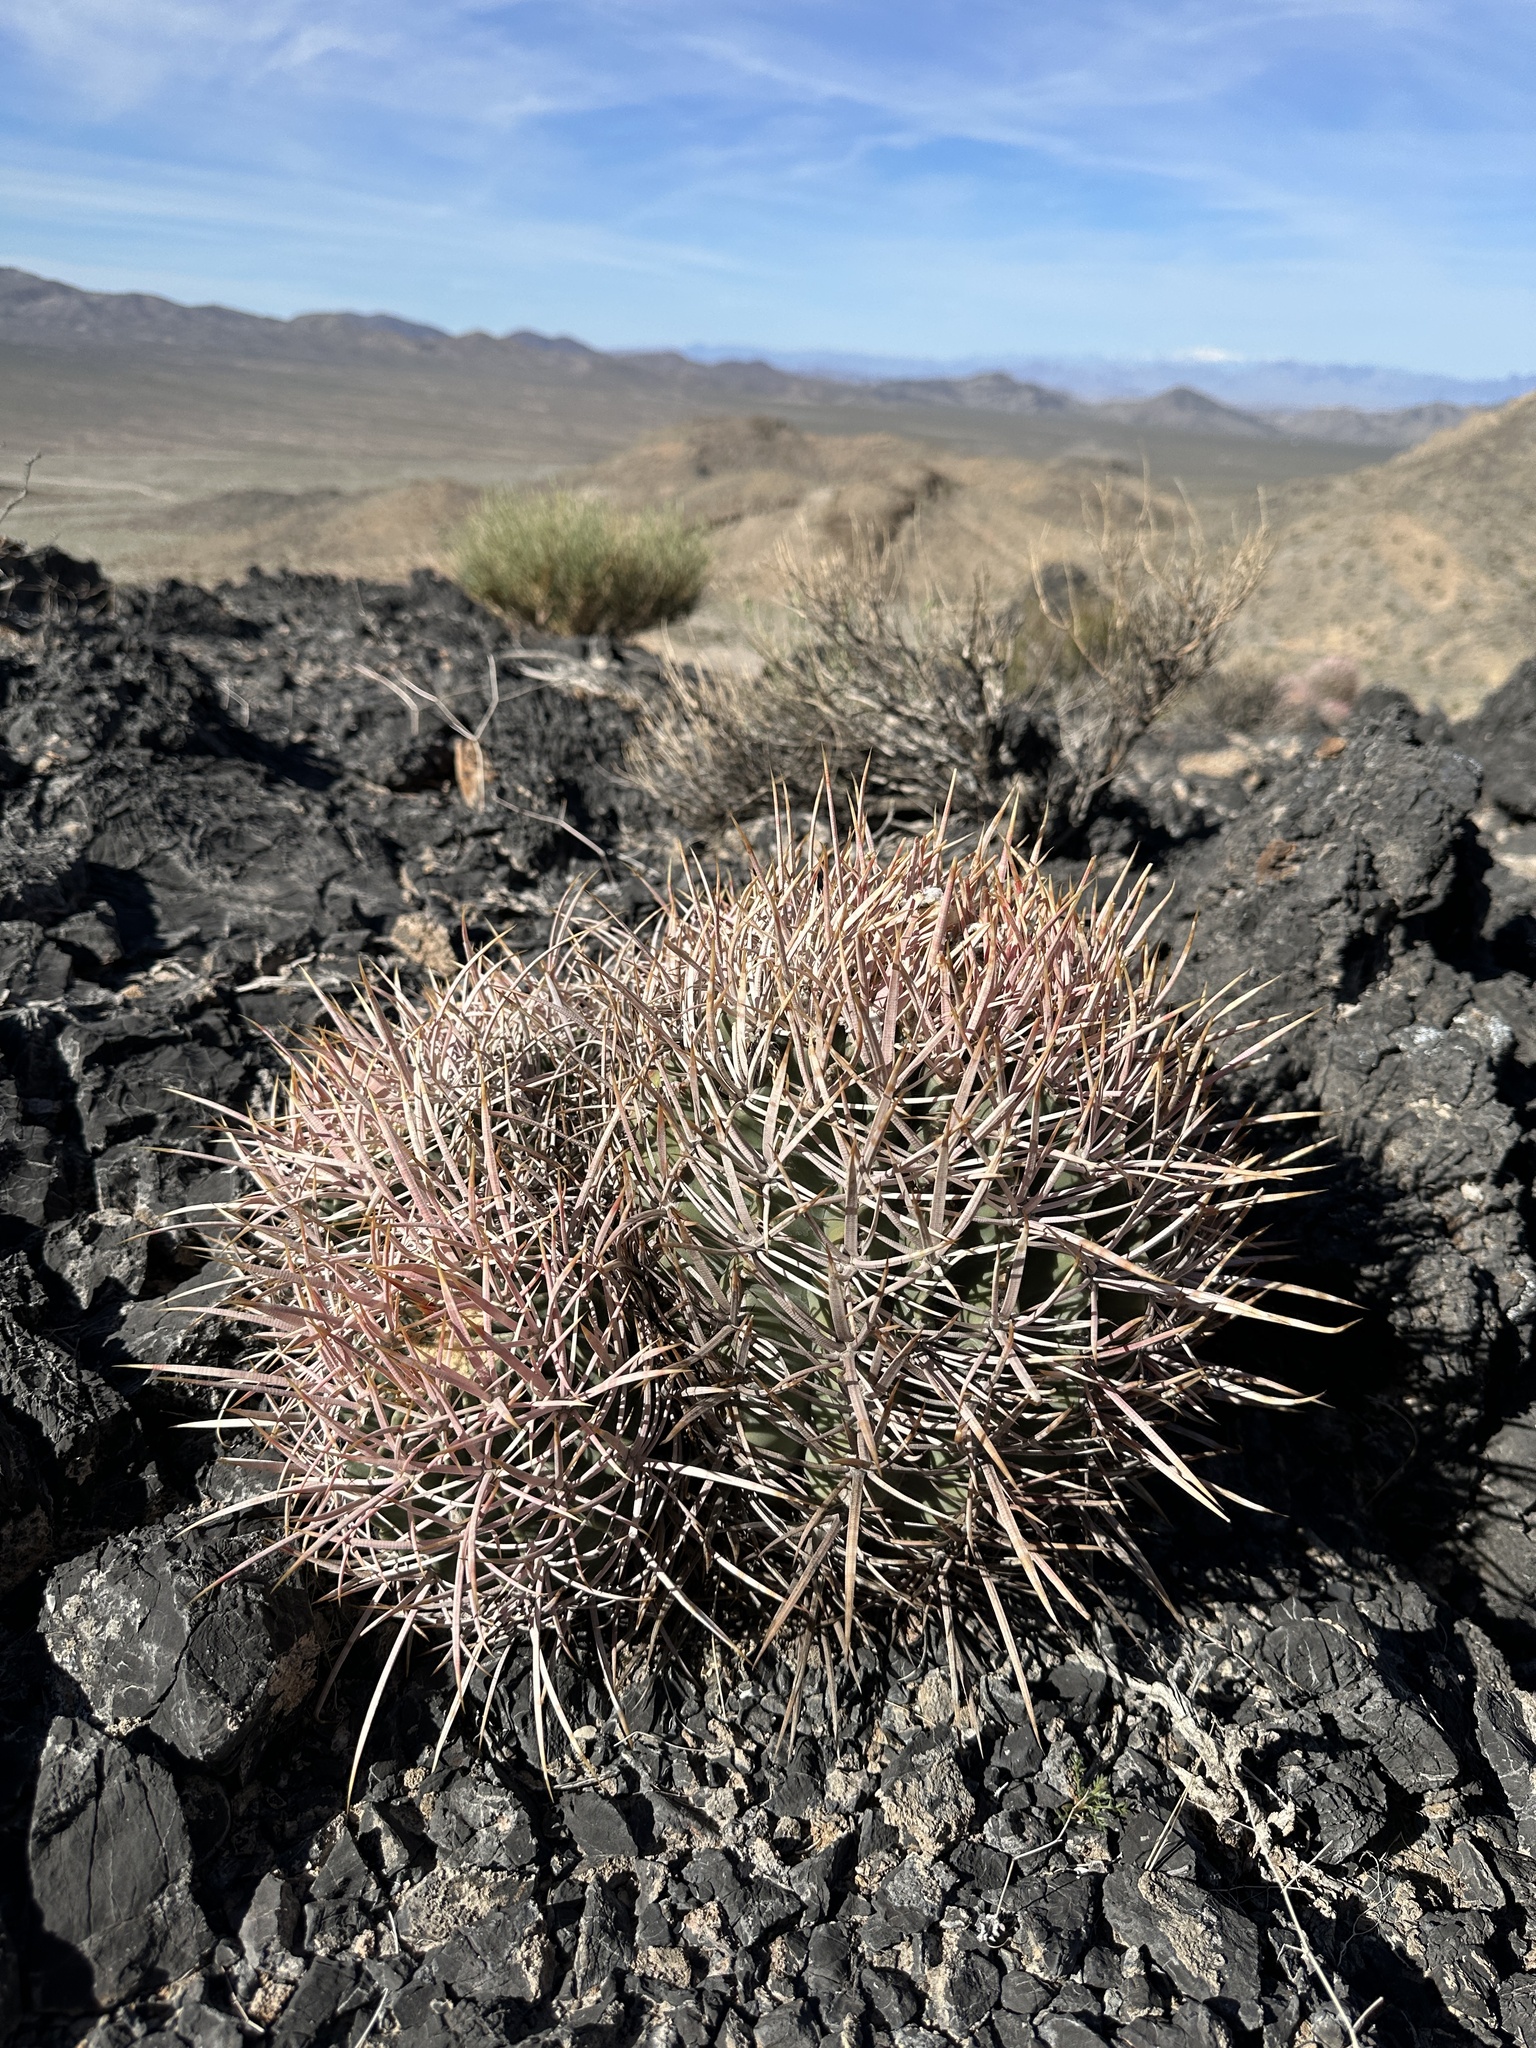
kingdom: Plantae
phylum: Tracheophyta
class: Magnoliopsida
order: Caryophyllales
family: Cactaceae
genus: Echinocactus
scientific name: Echinocactus polycephalus
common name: Cottontop cactus
